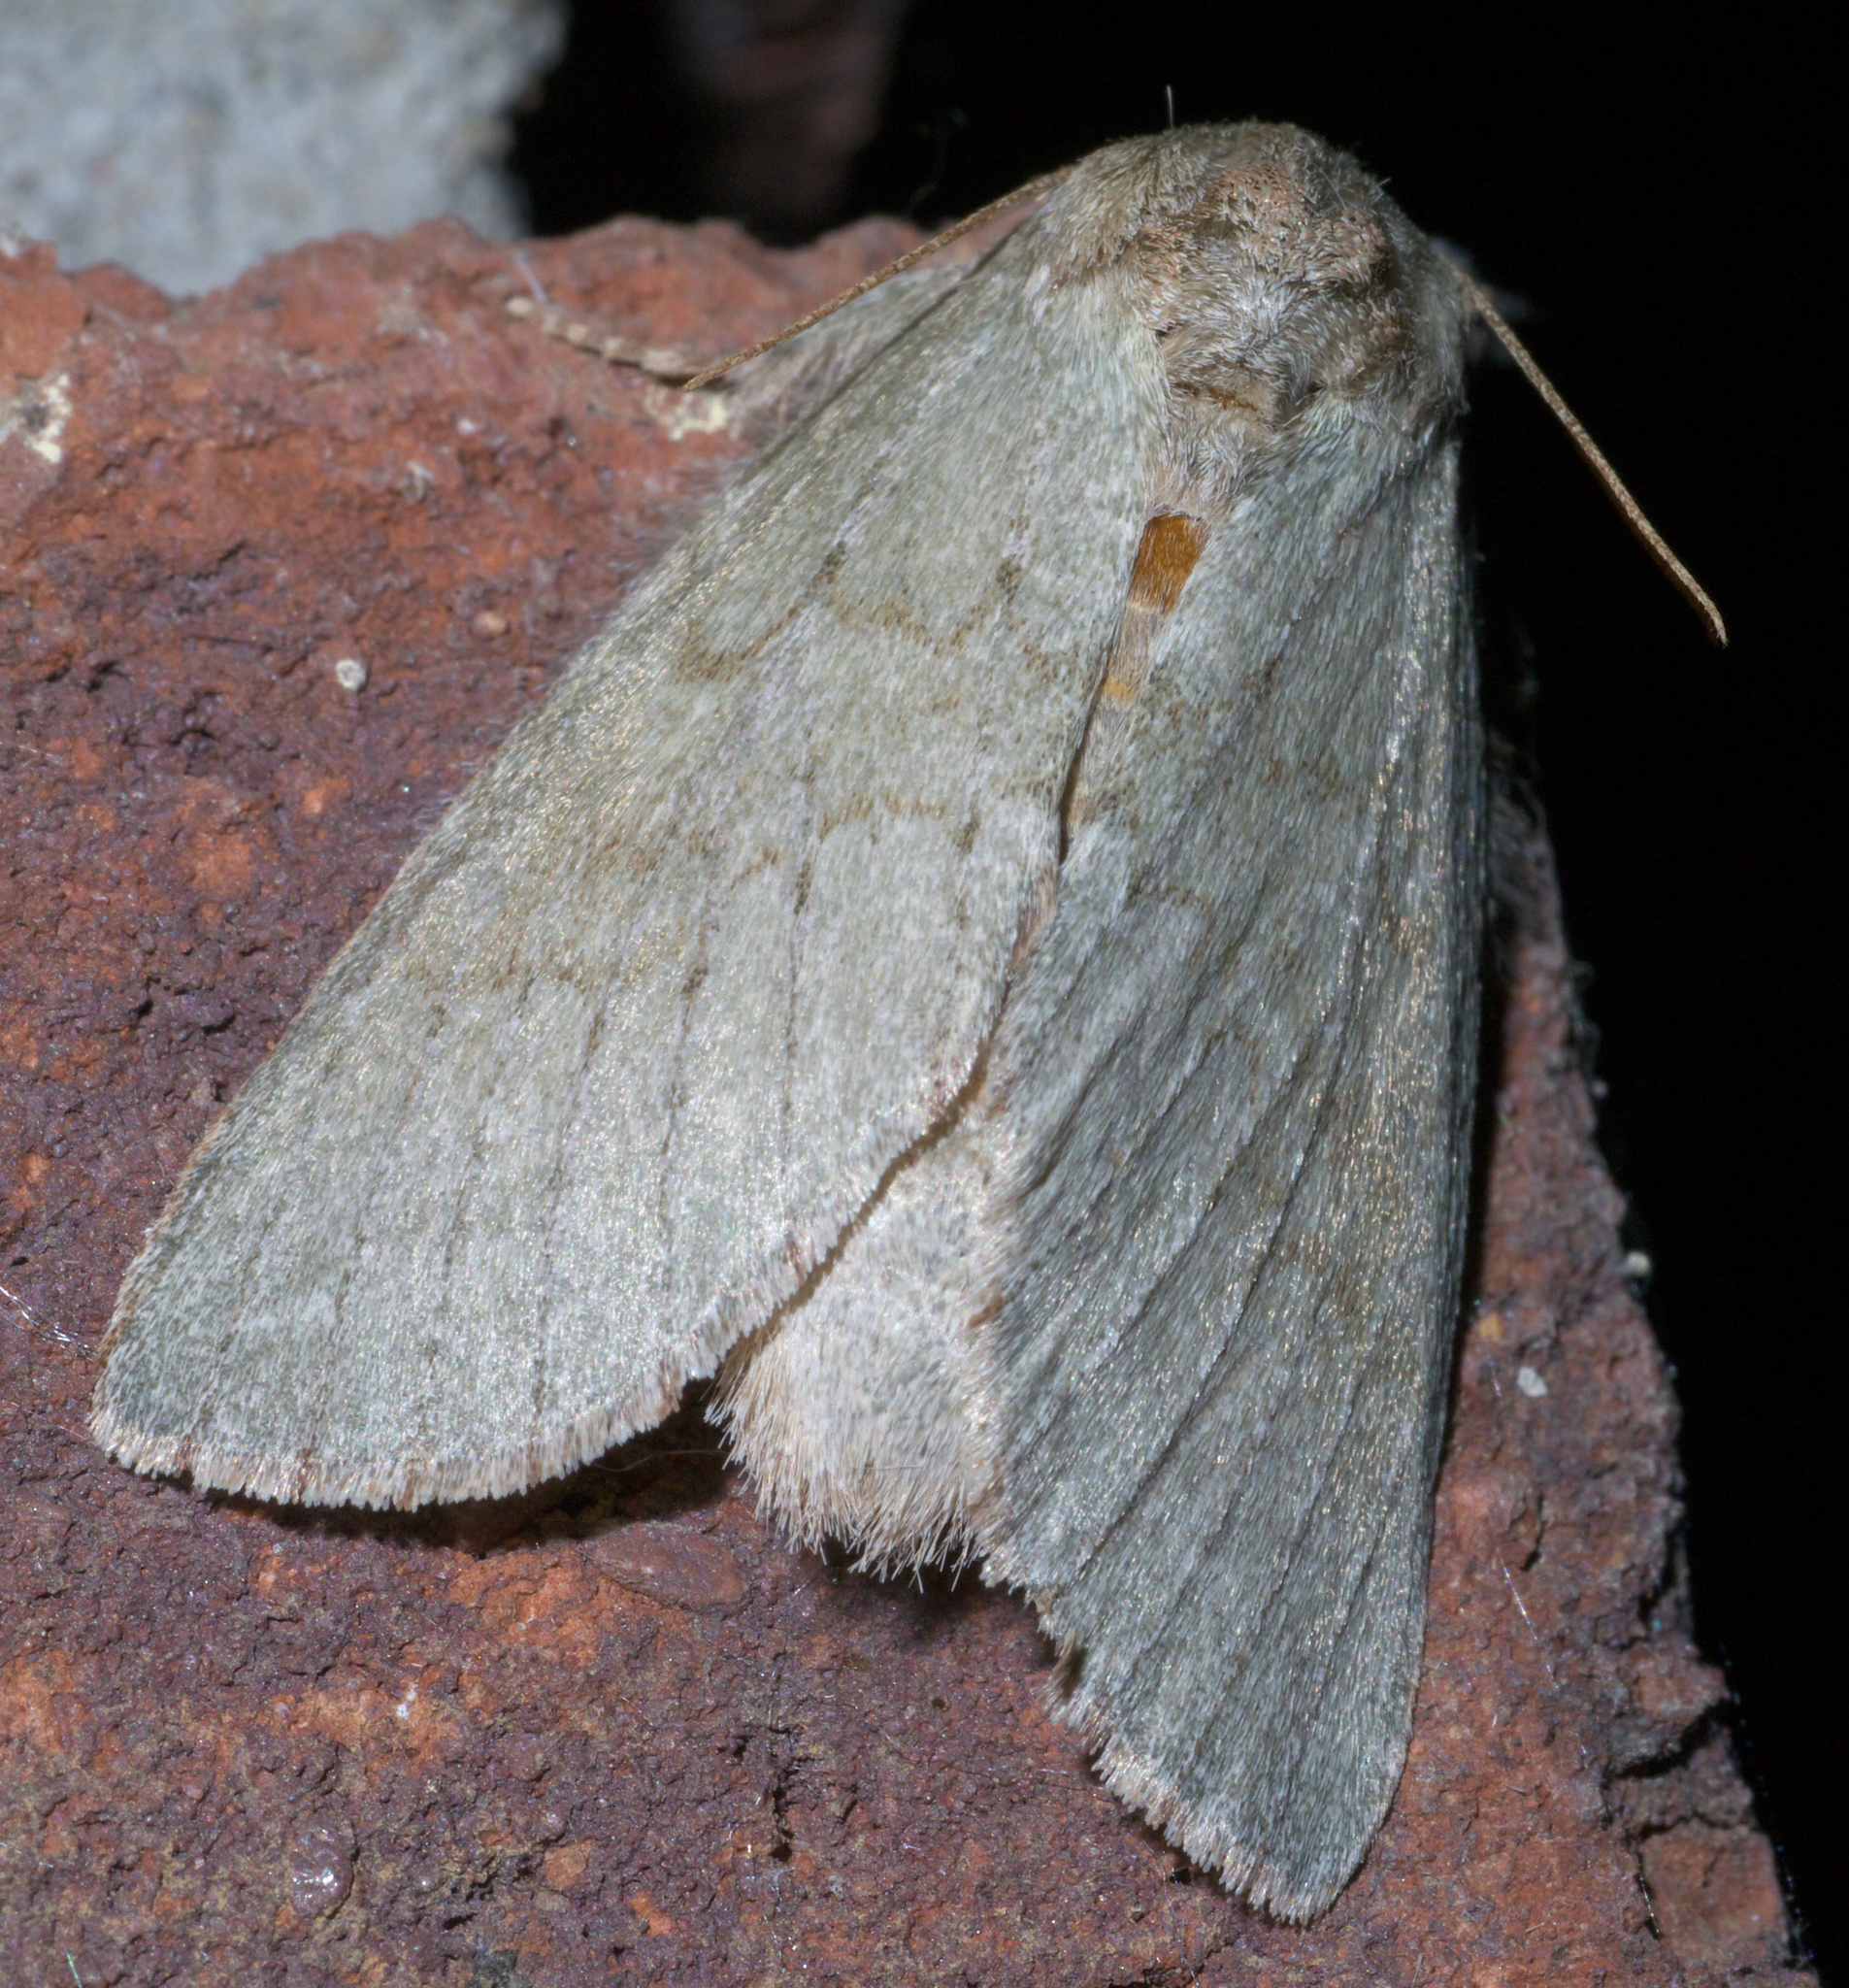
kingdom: Animalia
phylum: Arthropoda
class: Insecta
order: Lepidoptera
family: Notodontidae
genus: Misogada
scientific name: Misogada unicolor
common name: Drab prominent
